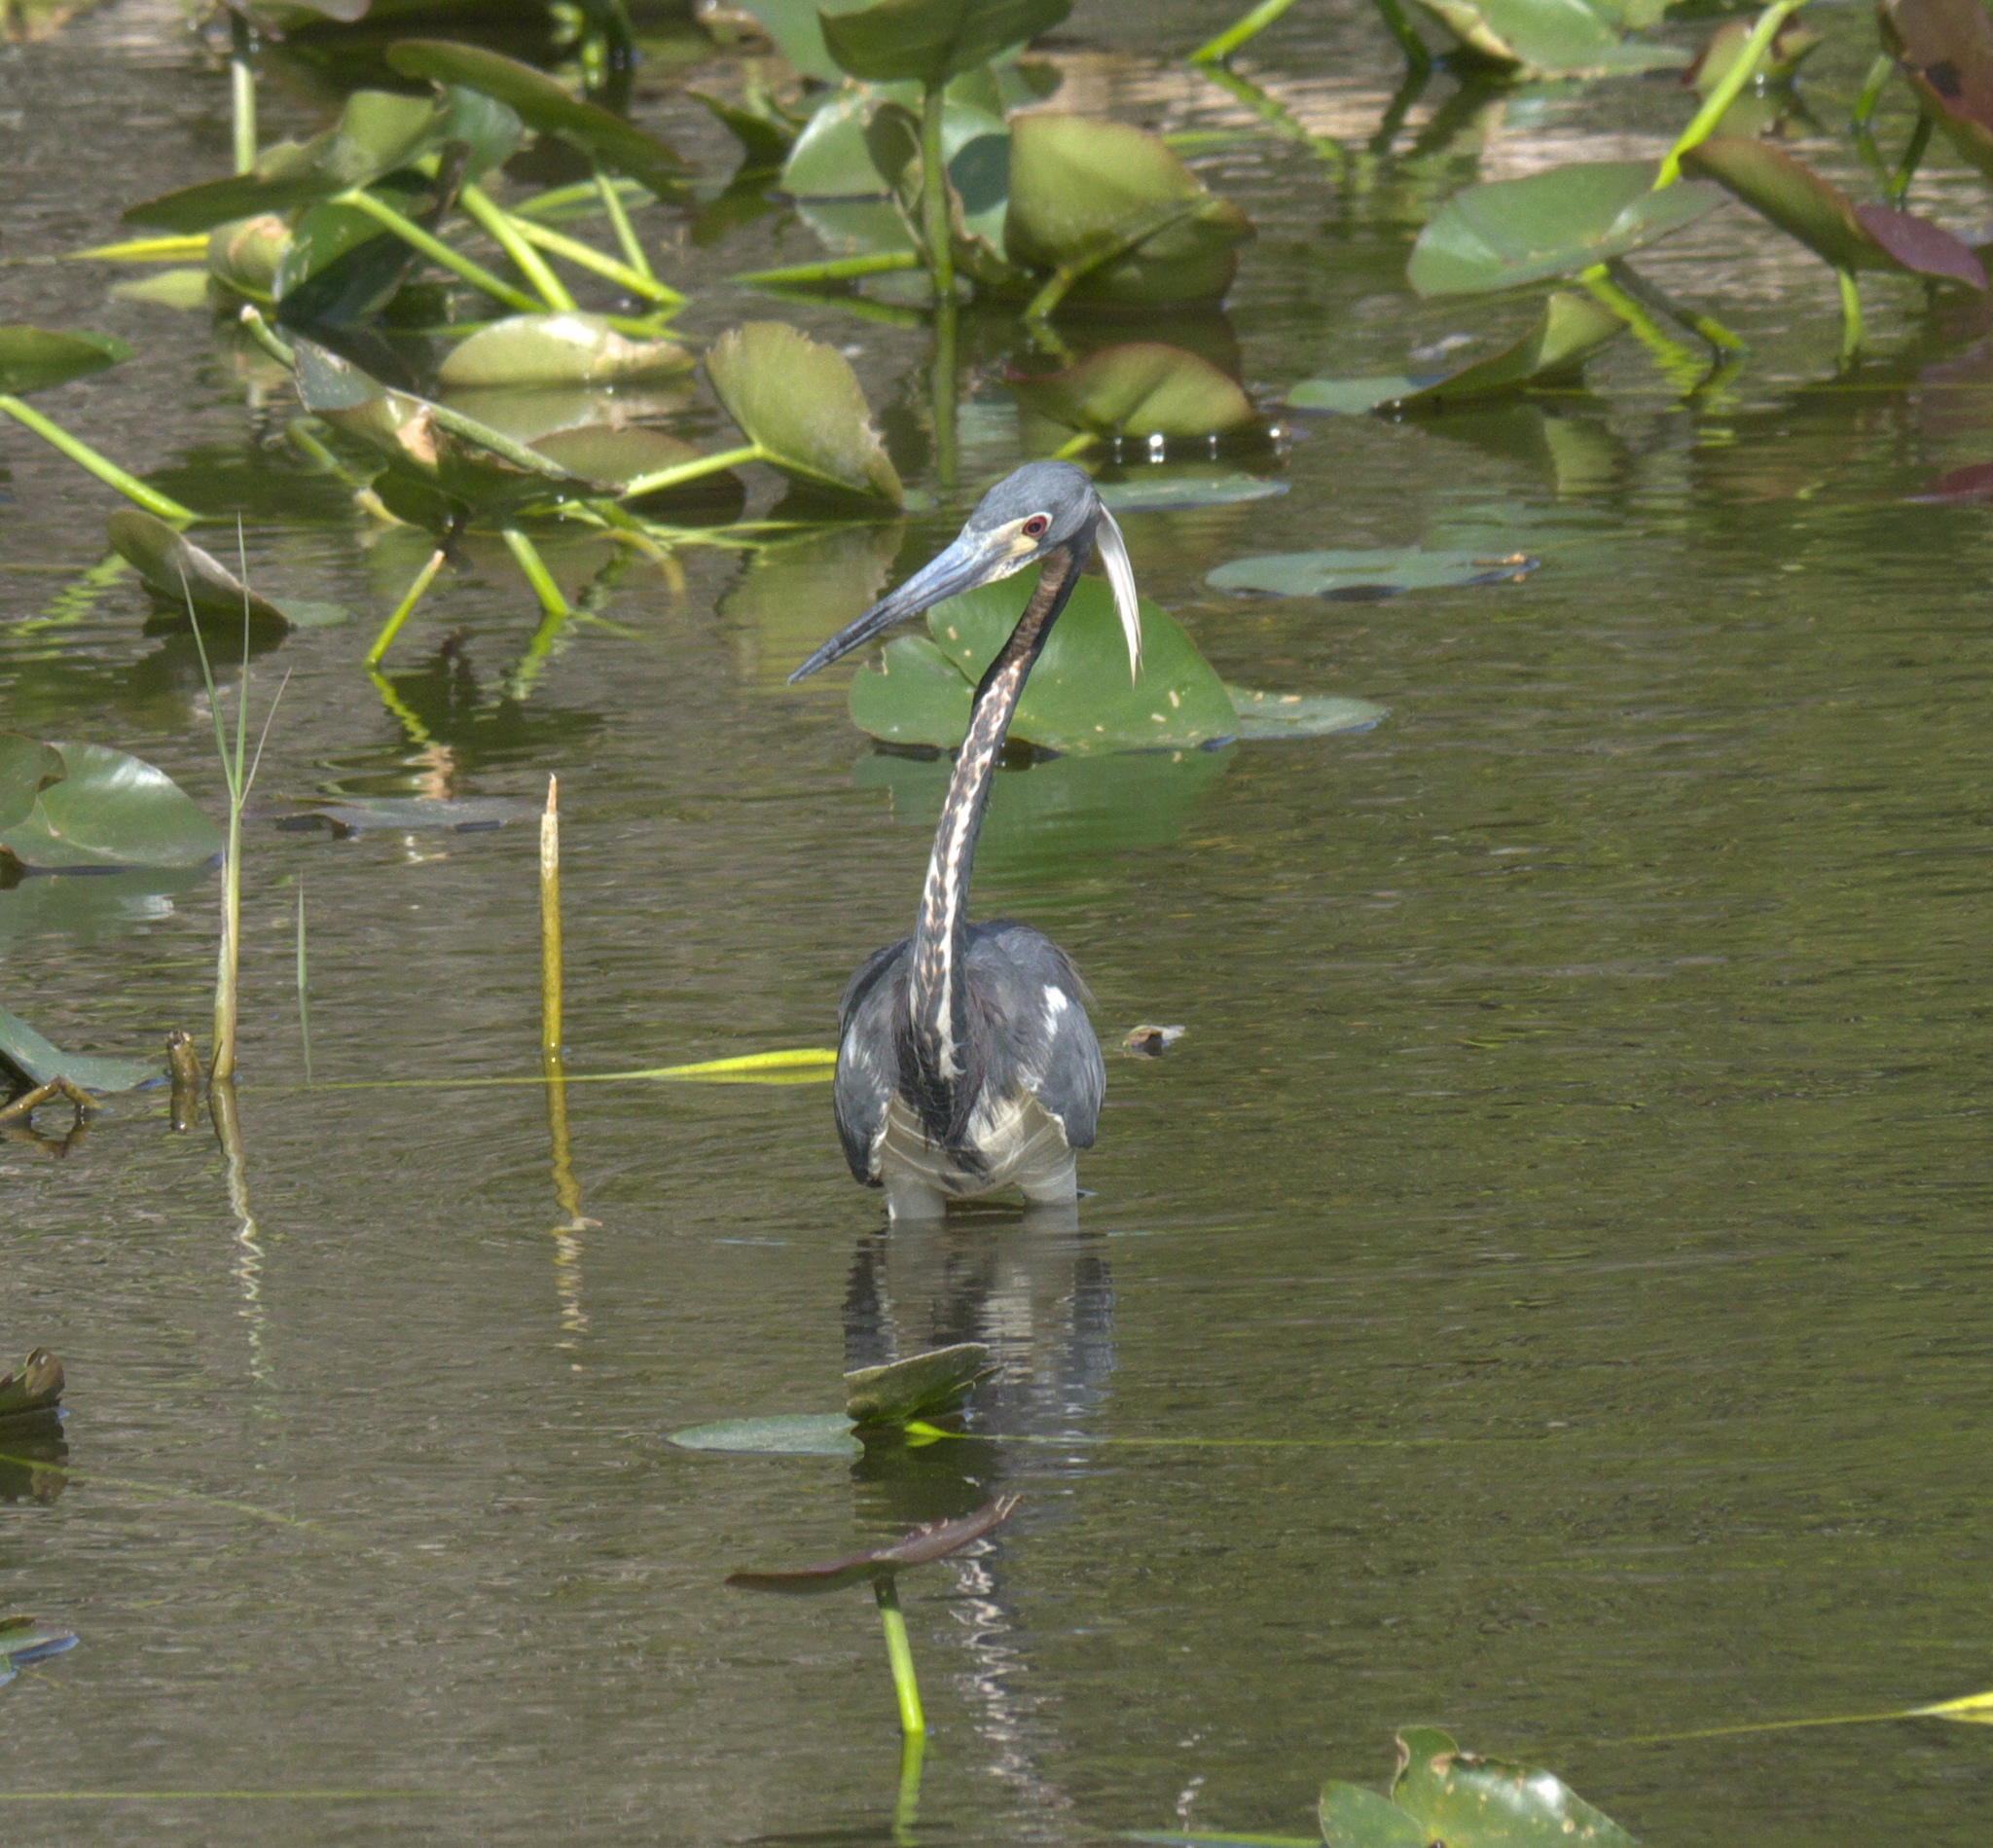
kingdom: Animalia
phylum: Chordata
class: Aves
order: Pelecaniformes
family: Ardeidae
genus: Egretta
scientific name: Egretta tricolor
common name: Tricolored heron
